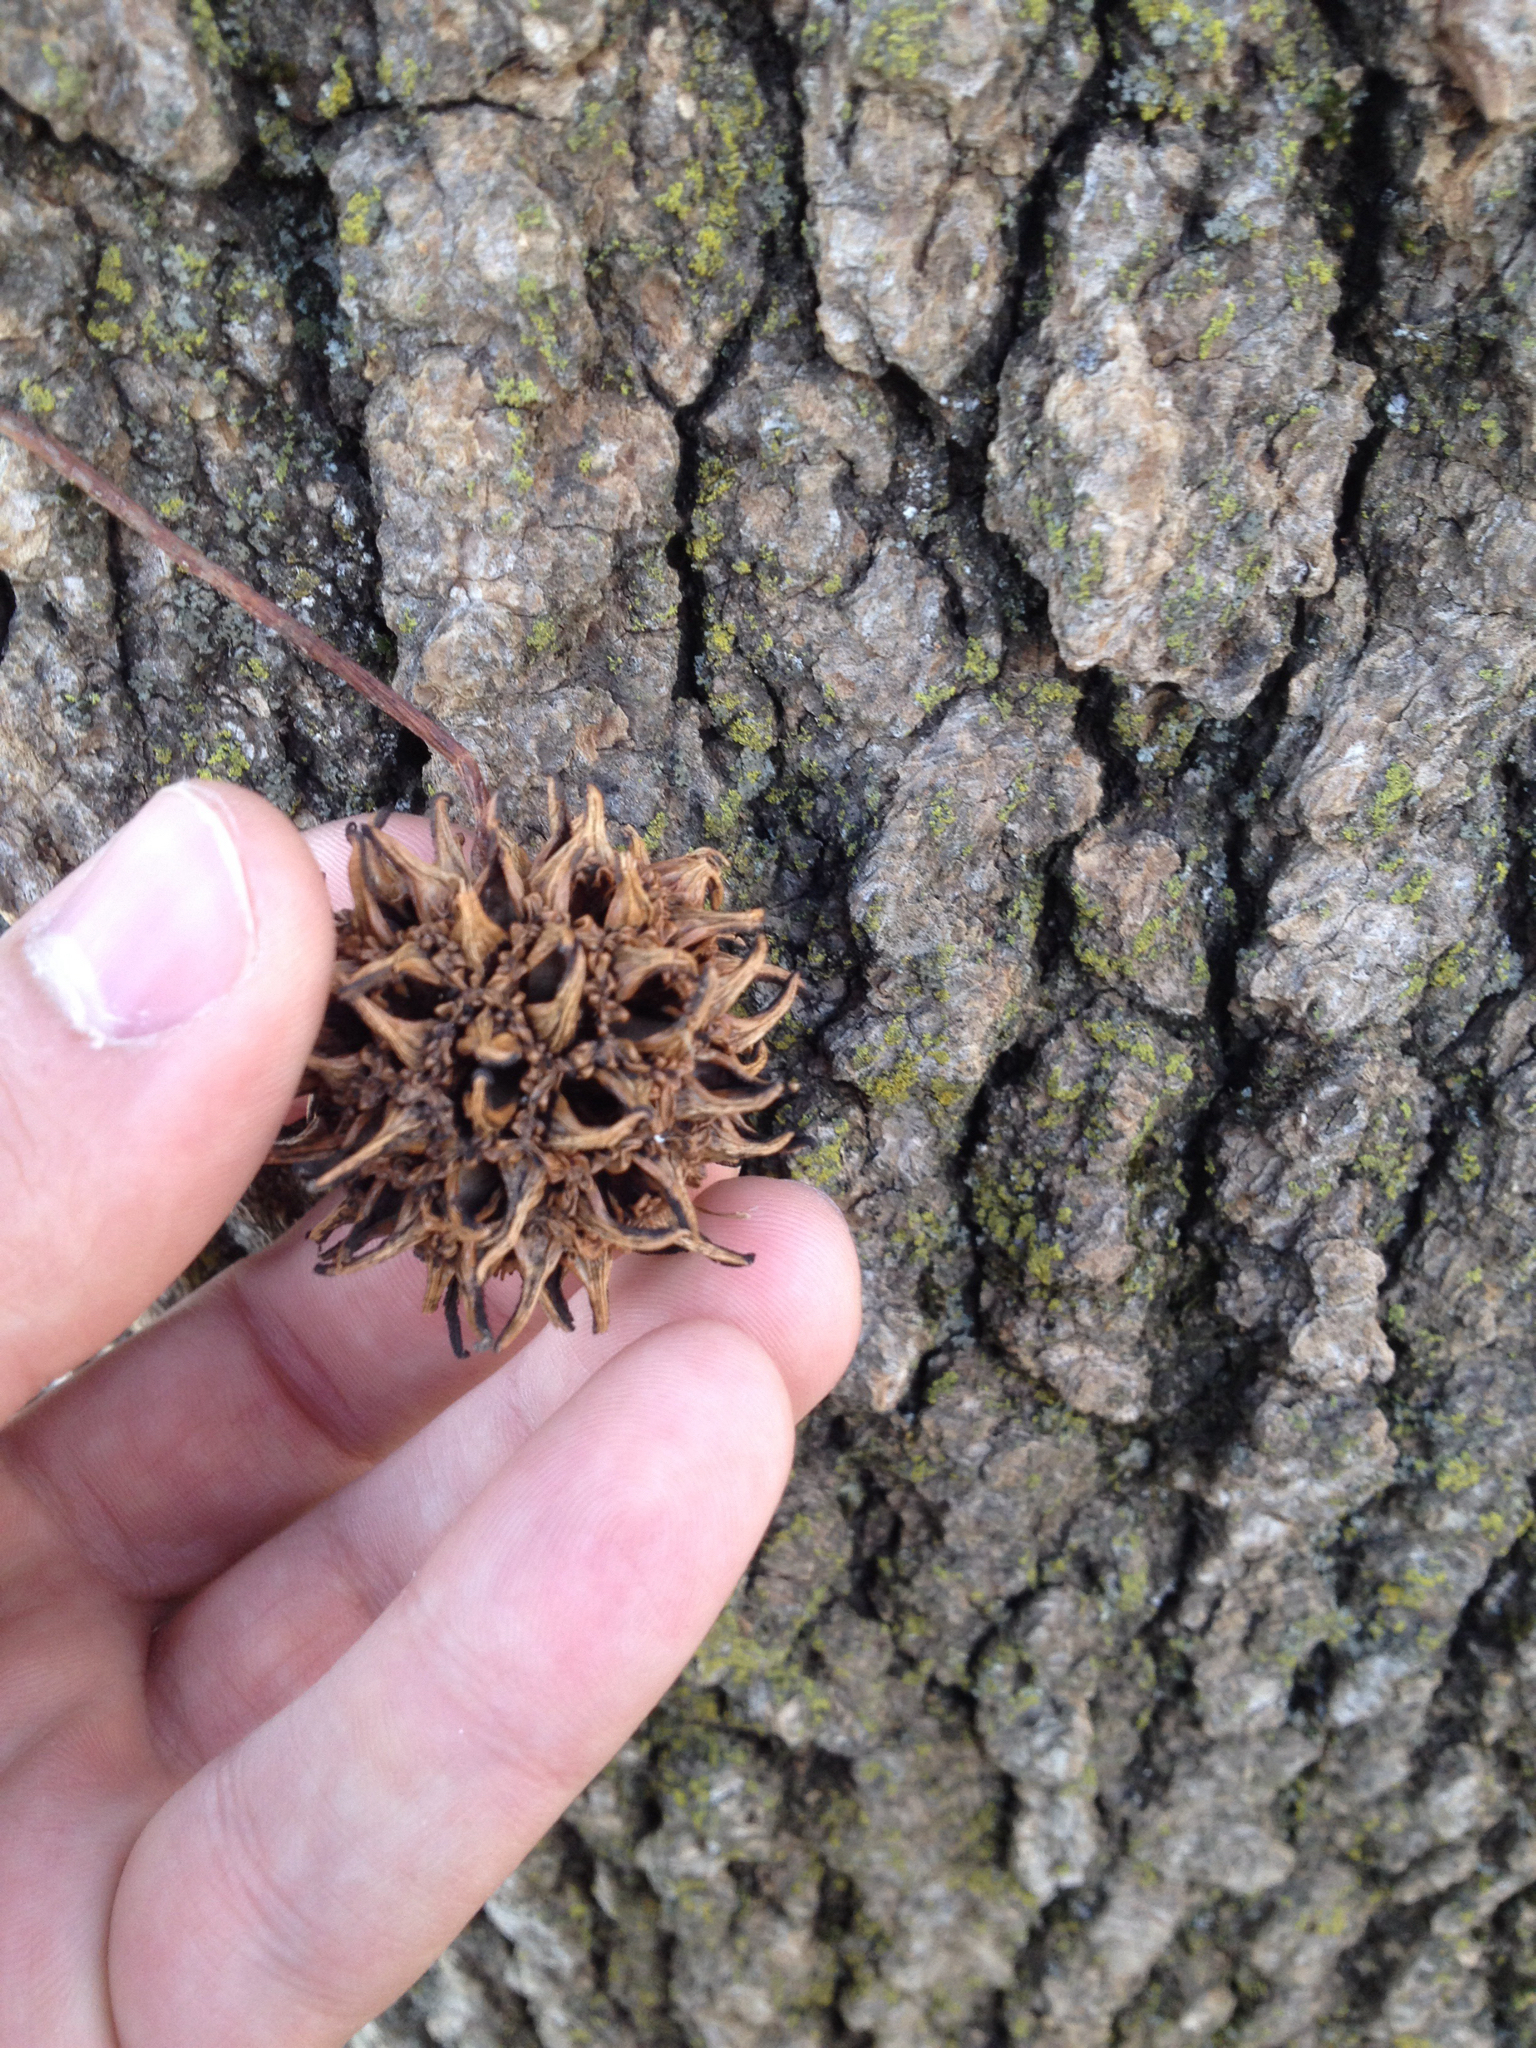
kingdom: Plantae
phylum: Tracheophyta
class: Magnoliopsida
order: Saxifragales
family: Altingiaceae
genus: Liquidambar
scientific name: Liquidambar styraciflua
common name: Sweet gum
